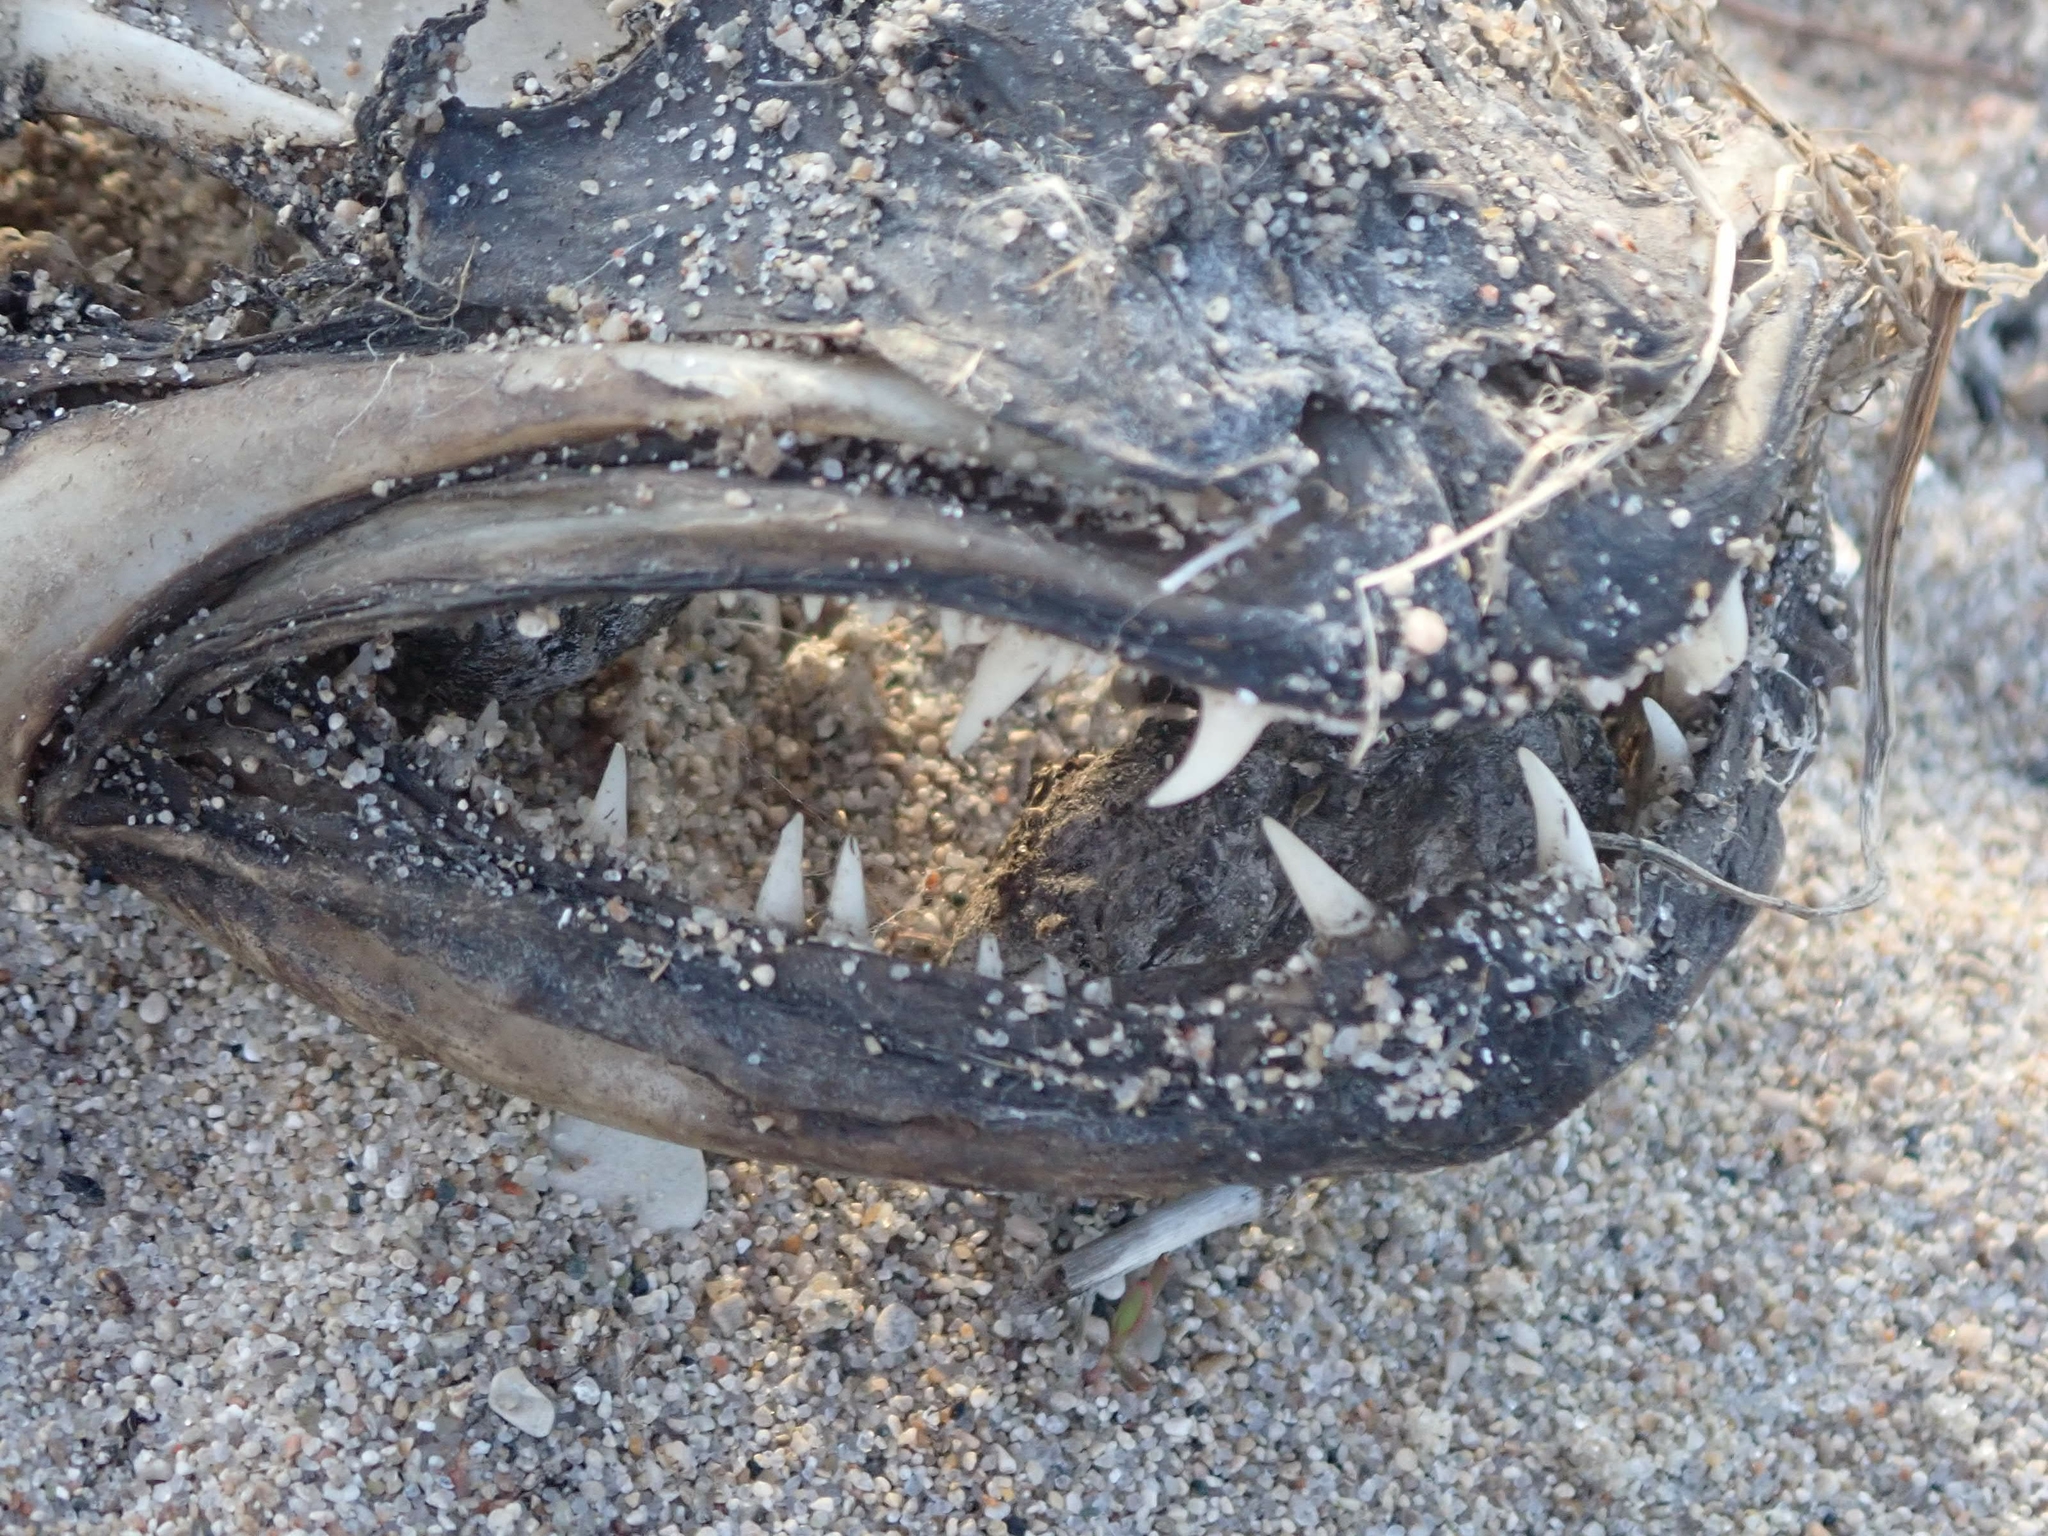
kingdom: Animalia
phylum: Chordata
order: Perciformes
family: Percidae
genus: Sander
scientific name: Sander vitreus
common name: Walleye
